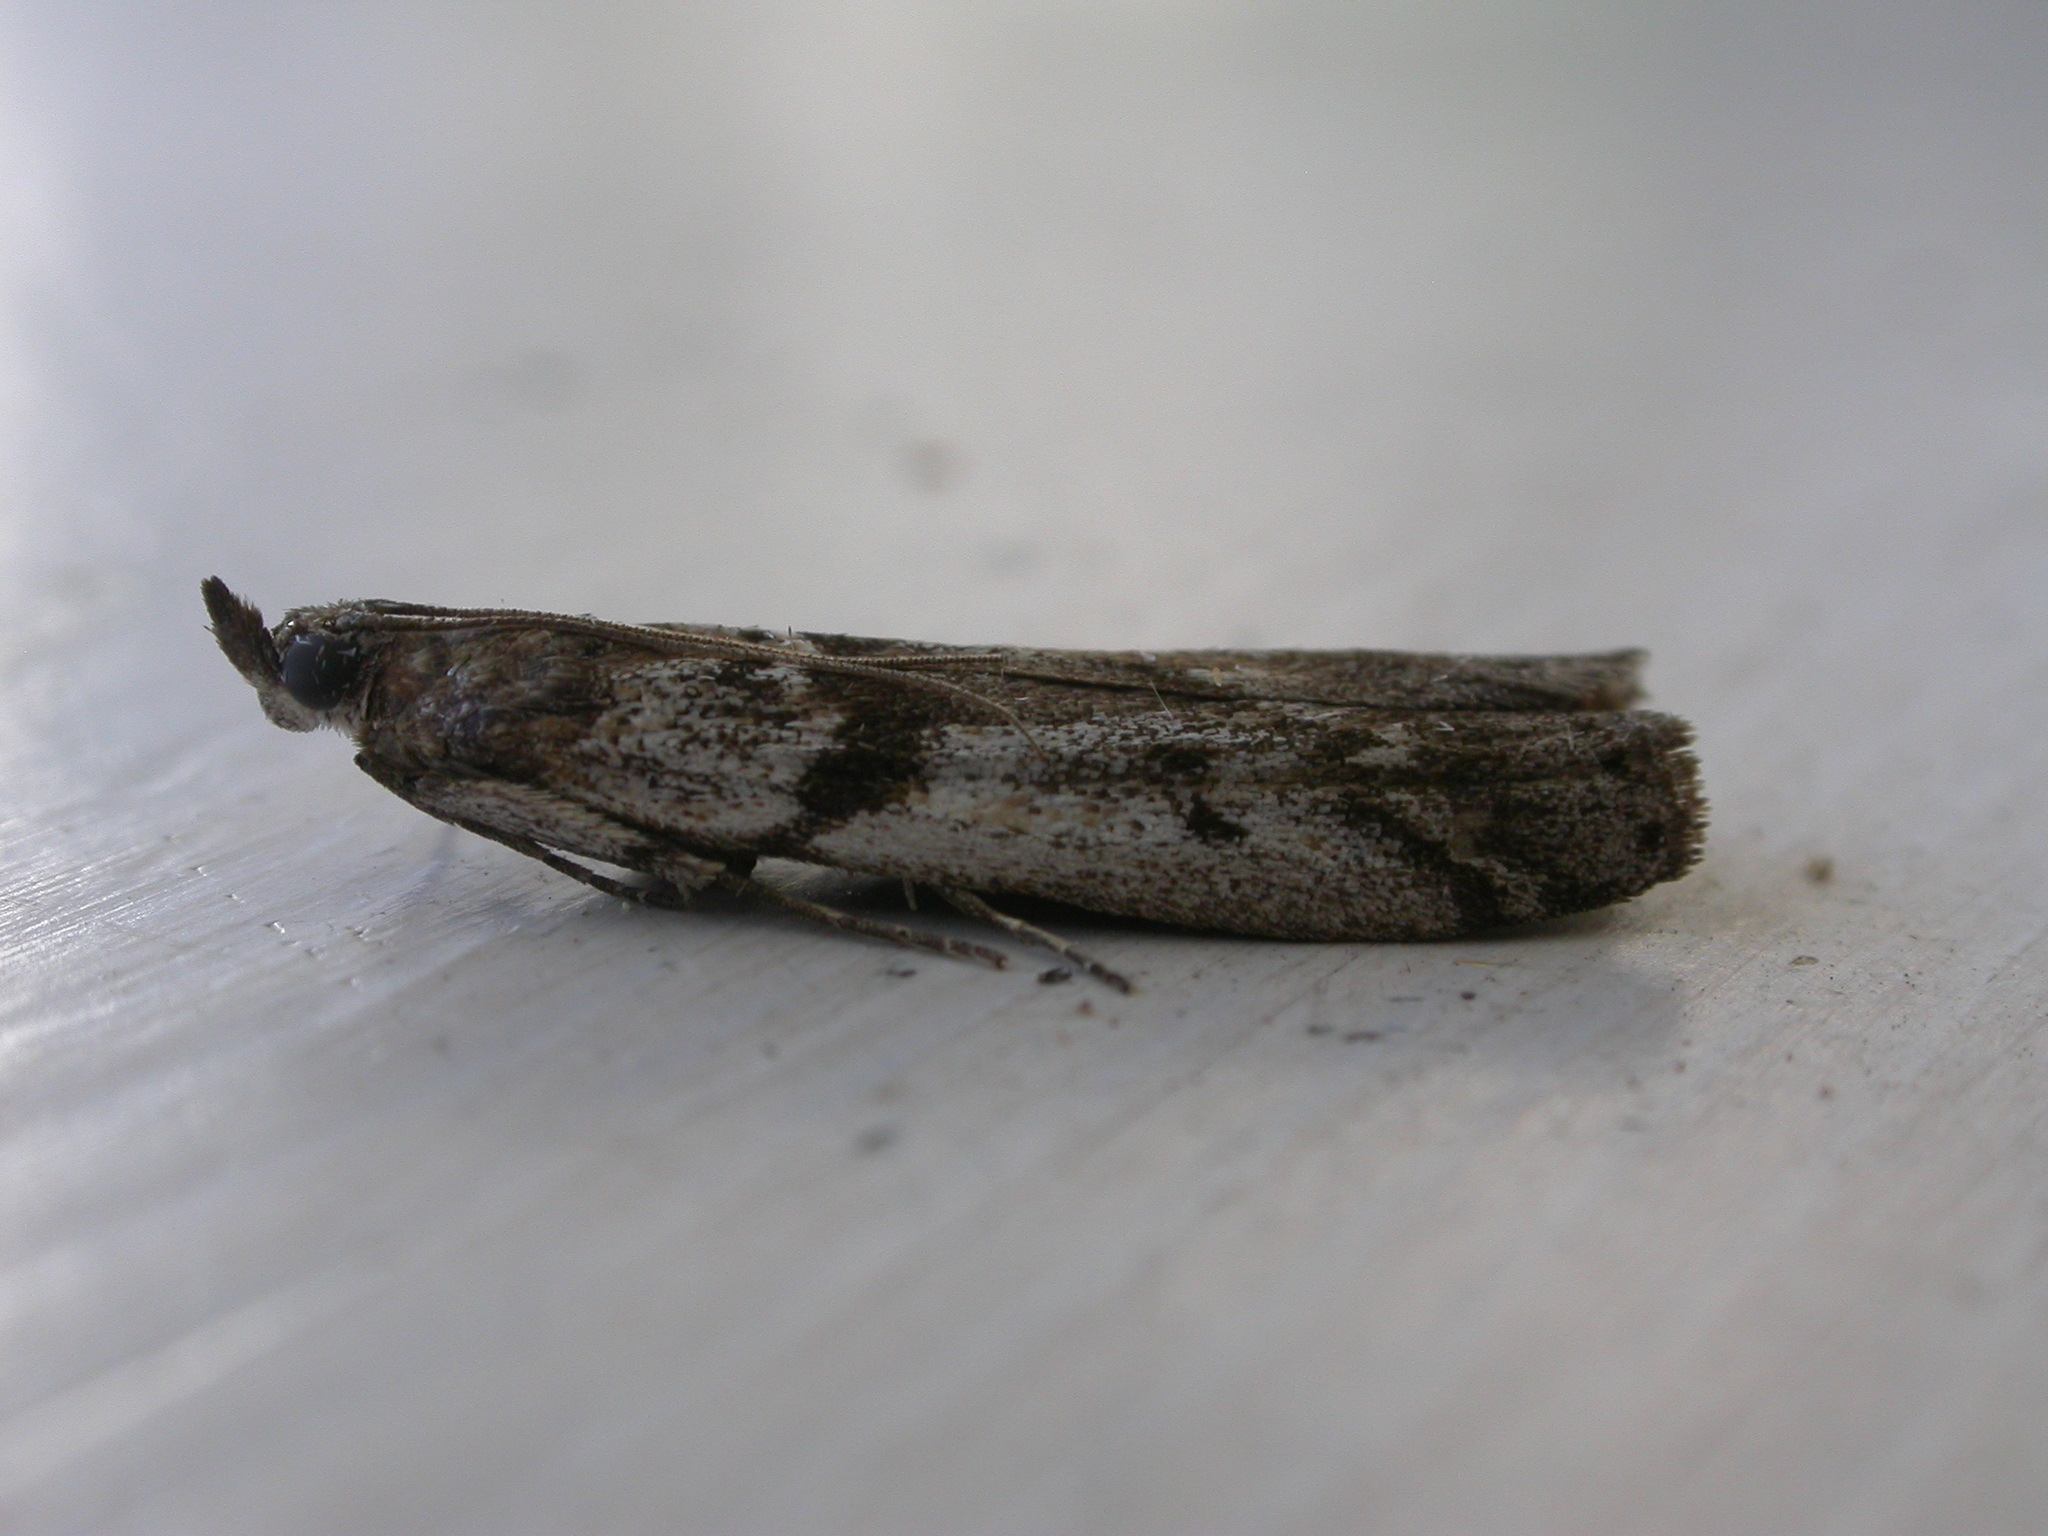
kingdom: Animalia
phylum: Arthropoda
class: Insecta
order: Lepidoptera
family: Pyralidae
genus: Zophodia
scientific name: Zophodia convolutella
